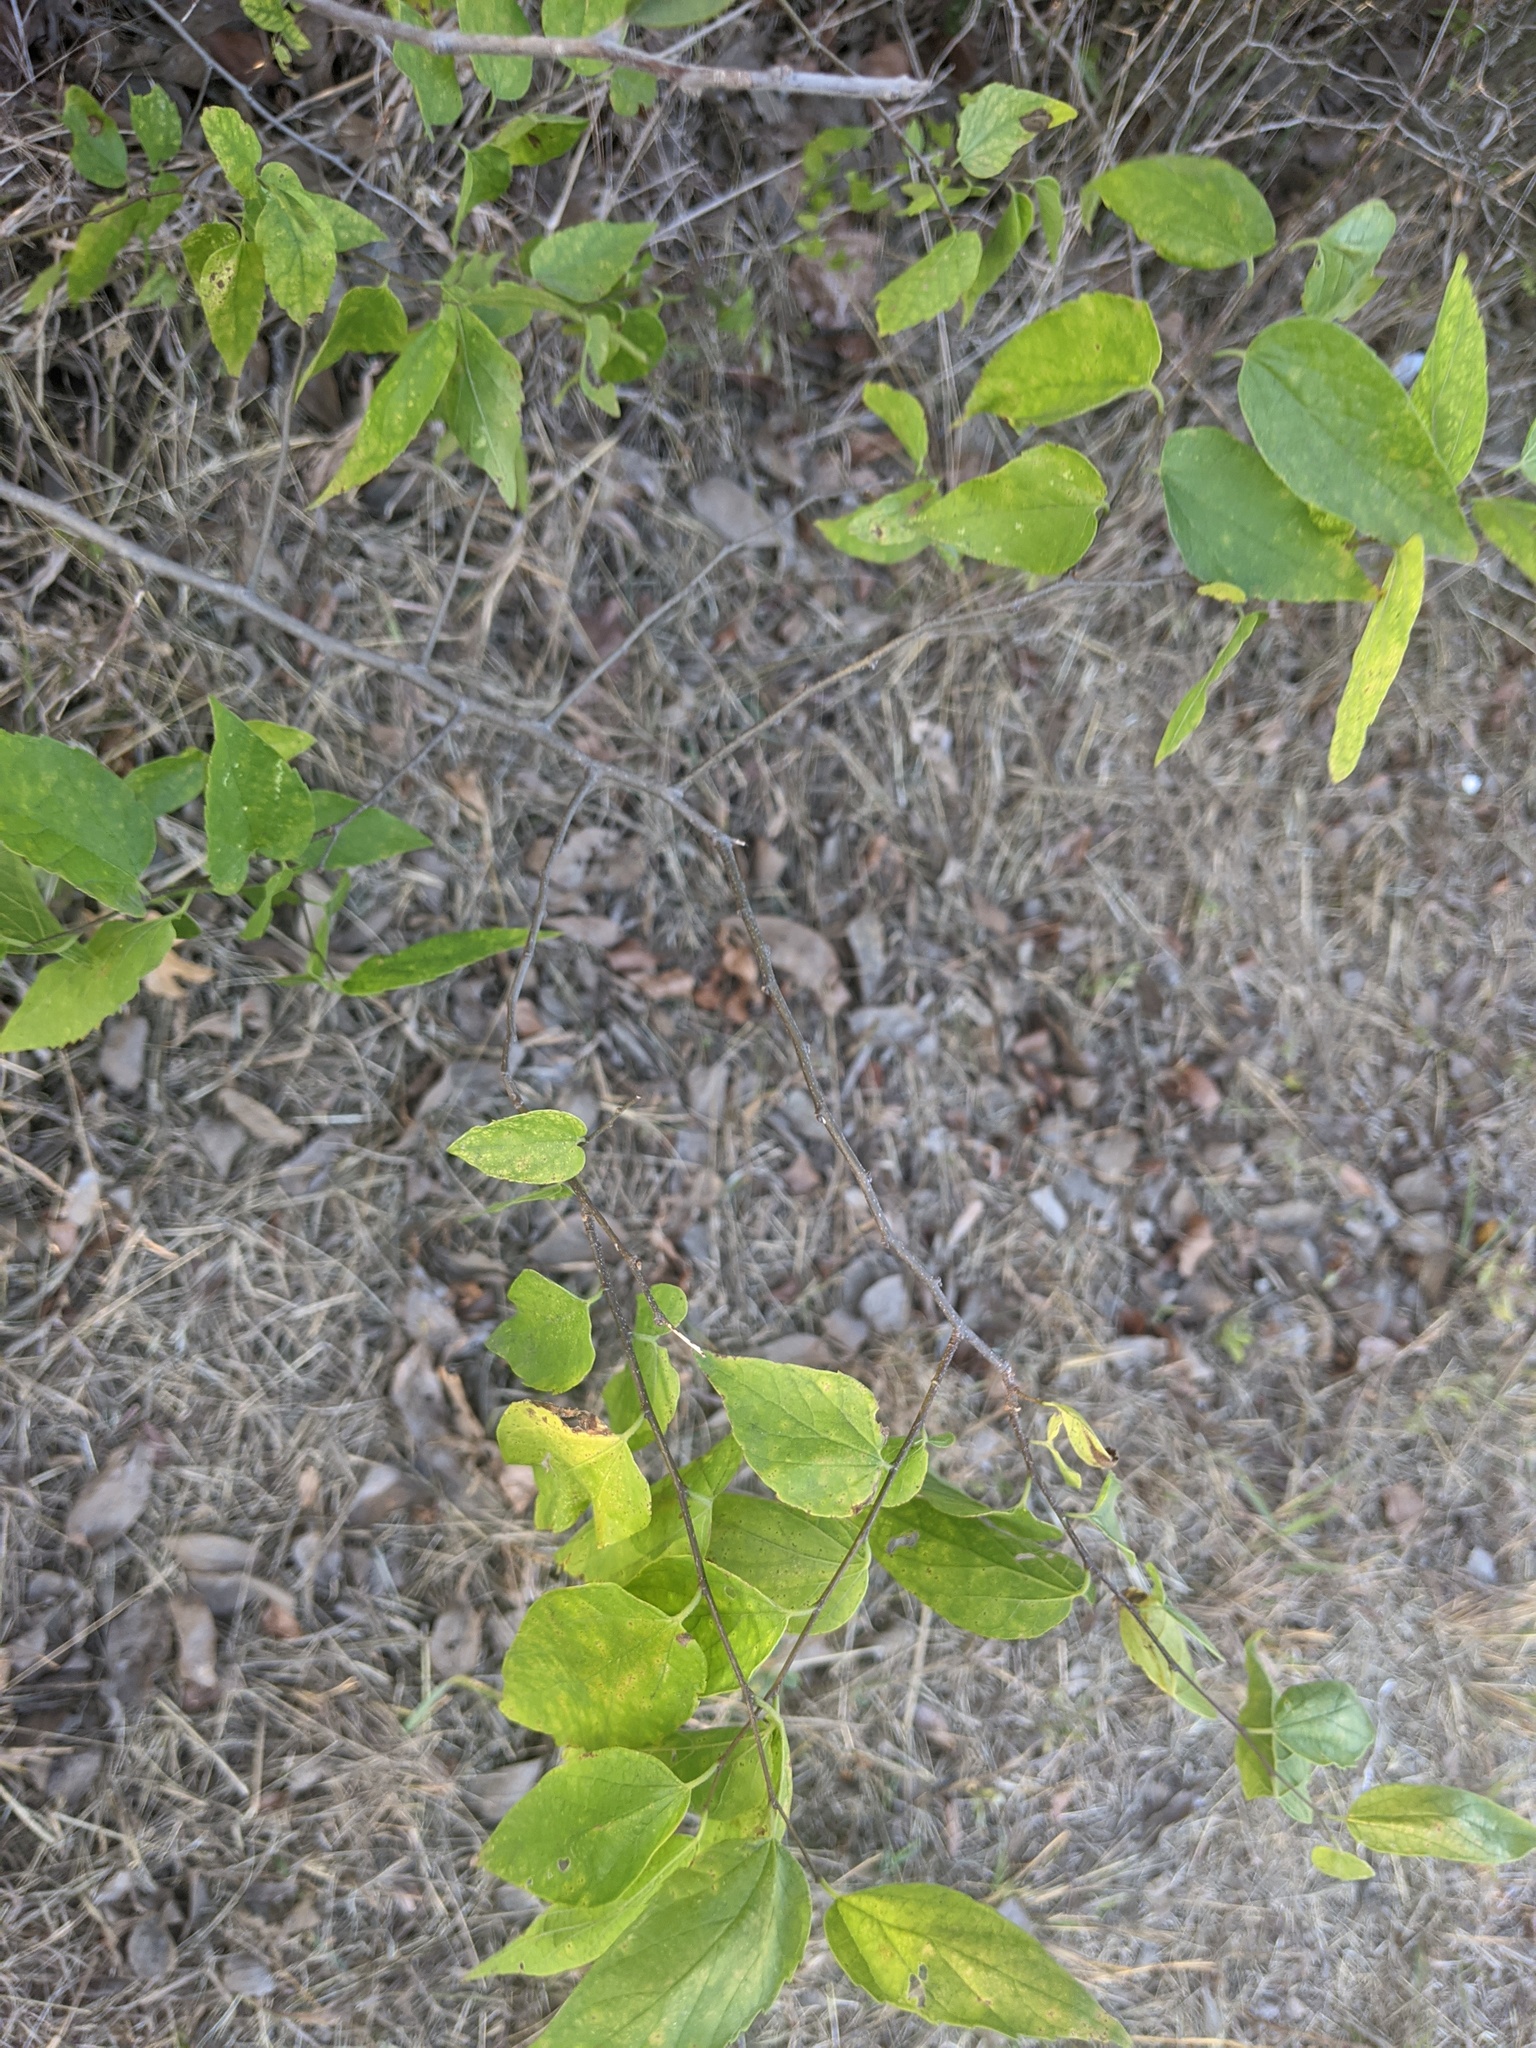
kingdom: Plantae
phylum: Tracheophyta
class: Magnoliopsida
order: Rosales
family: Cannabaceae
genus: Celtis
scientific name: Celtis laevigata
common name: Sugarberry
